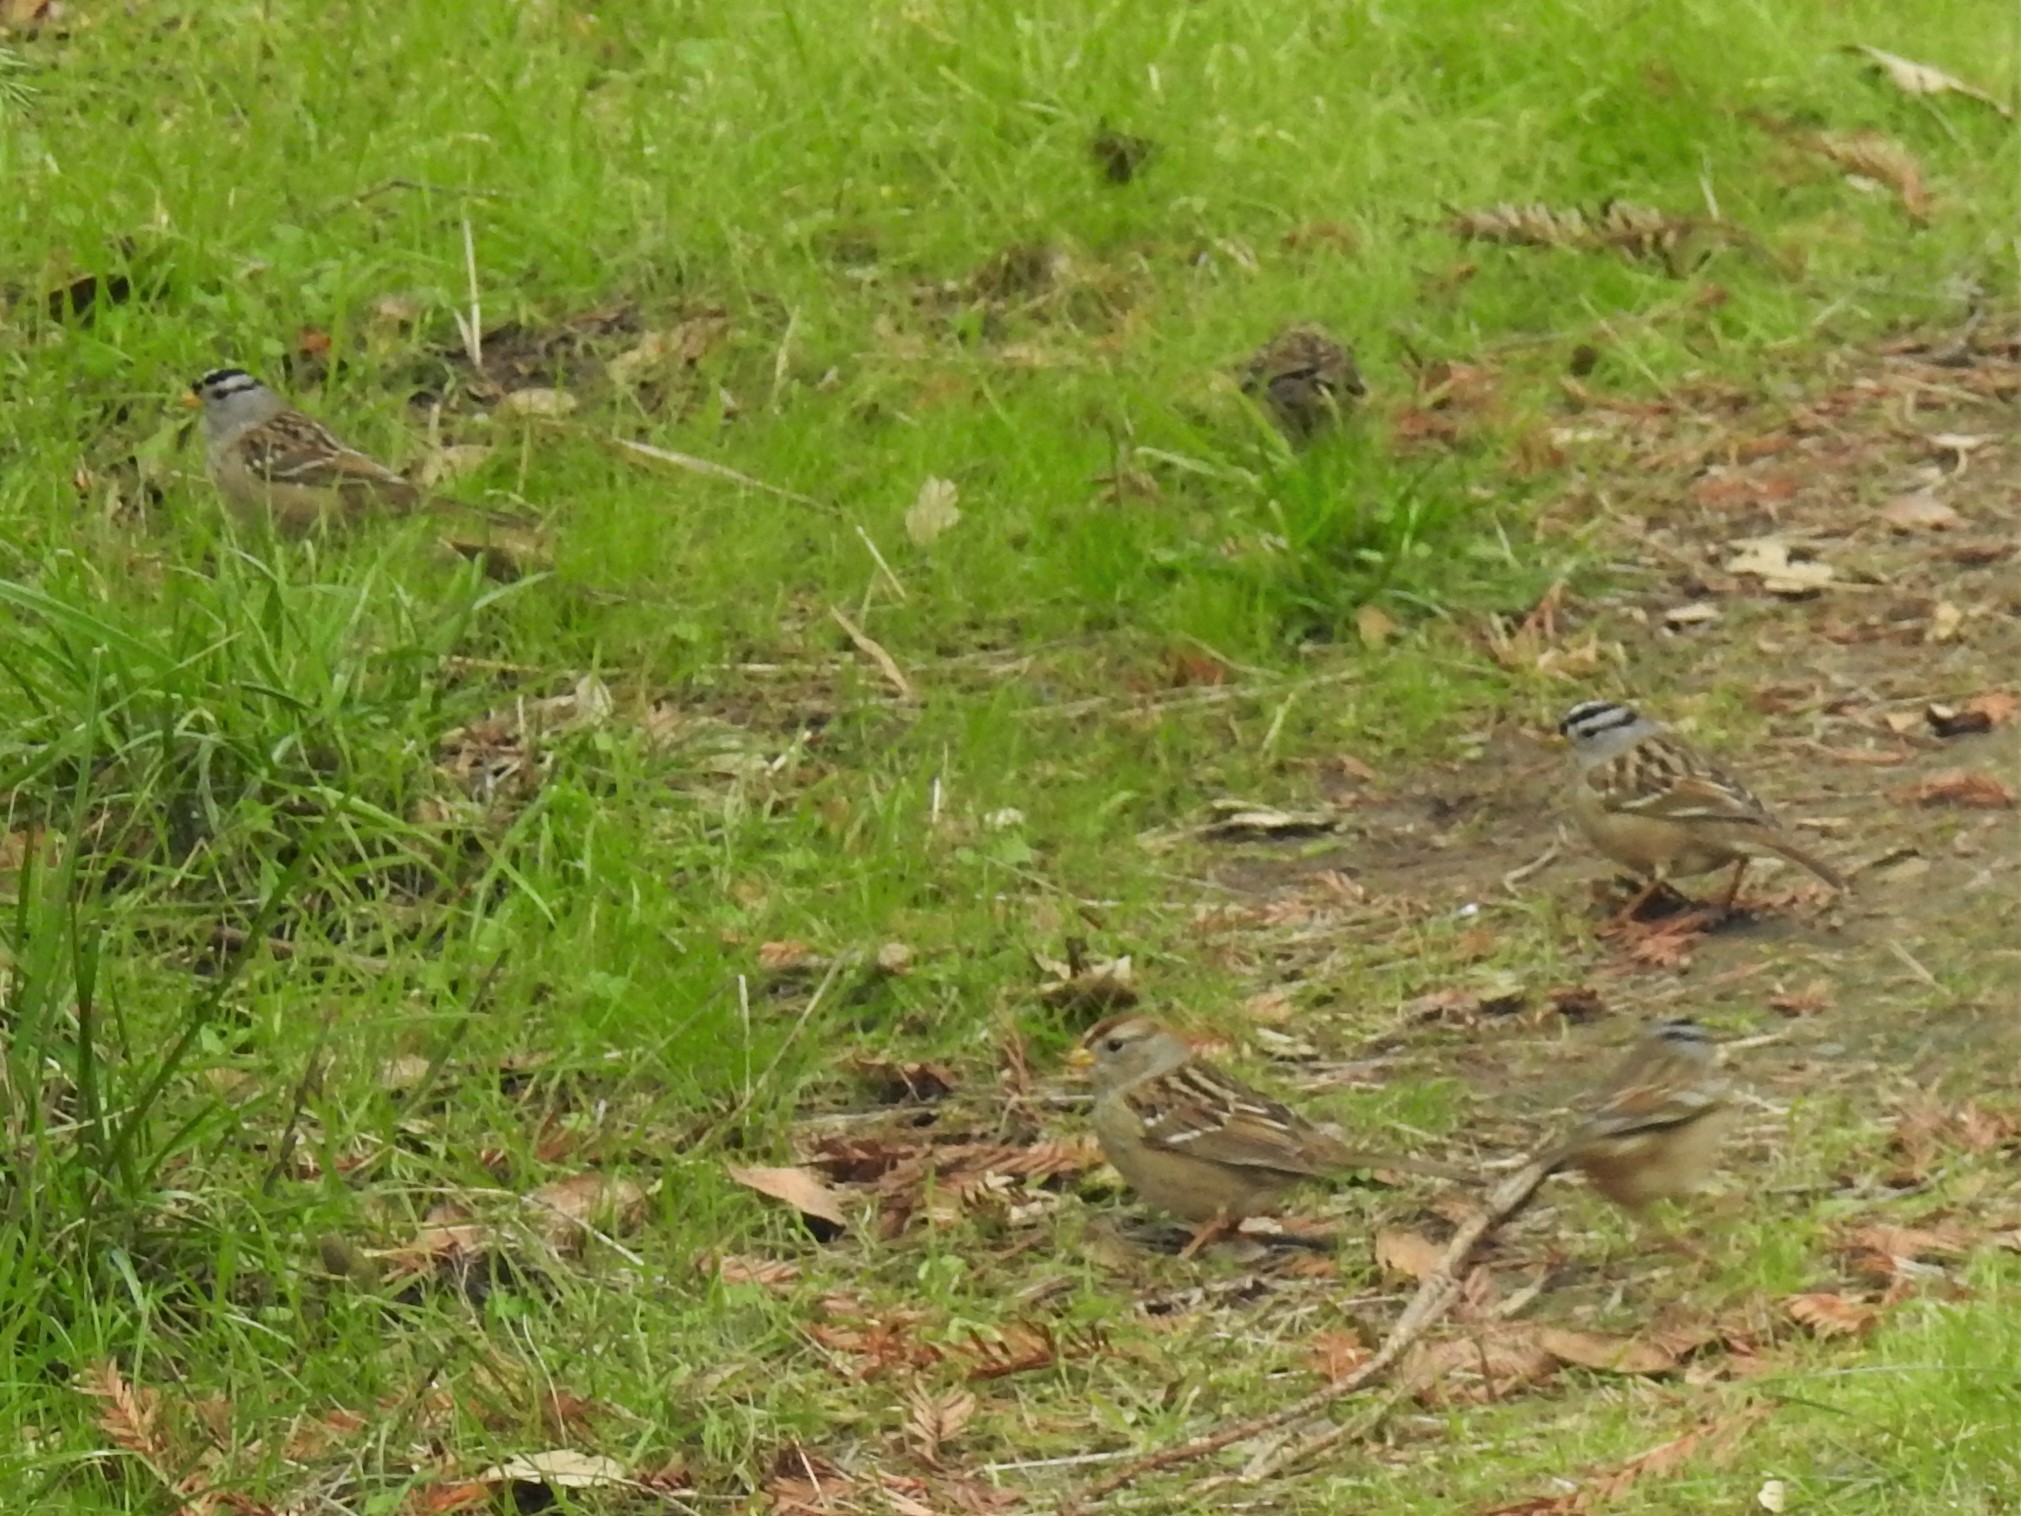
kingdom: Animalia
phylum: Chordata
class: Aves
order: Passeriformes
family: Passerellidae
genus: Zonotrichia
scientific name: Zonotrichia leucophrys
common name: White-crowned sparrow
